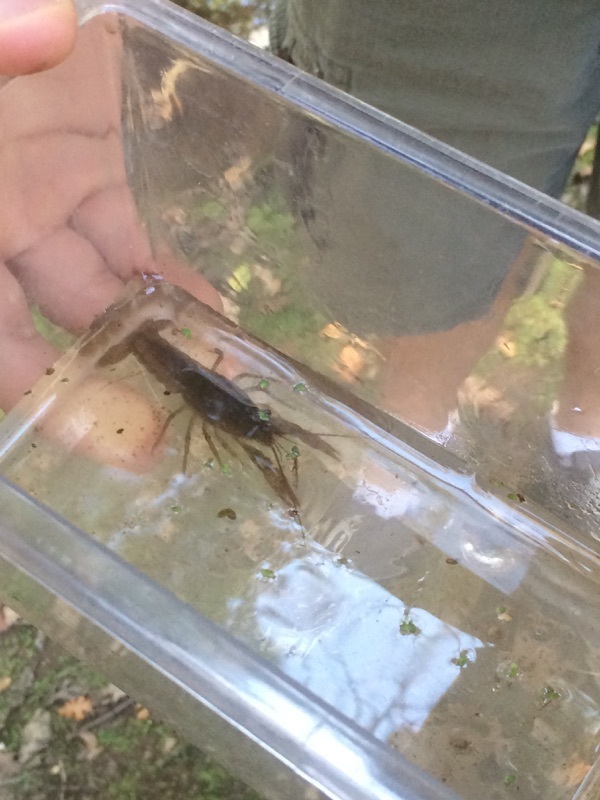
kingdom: Animalia
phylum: Arthropoda
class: Malacostraca
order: Decapoda
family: Cambaridae
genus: Procambarus
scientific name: Procambarus clarkii
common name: Red swamp crayfish
